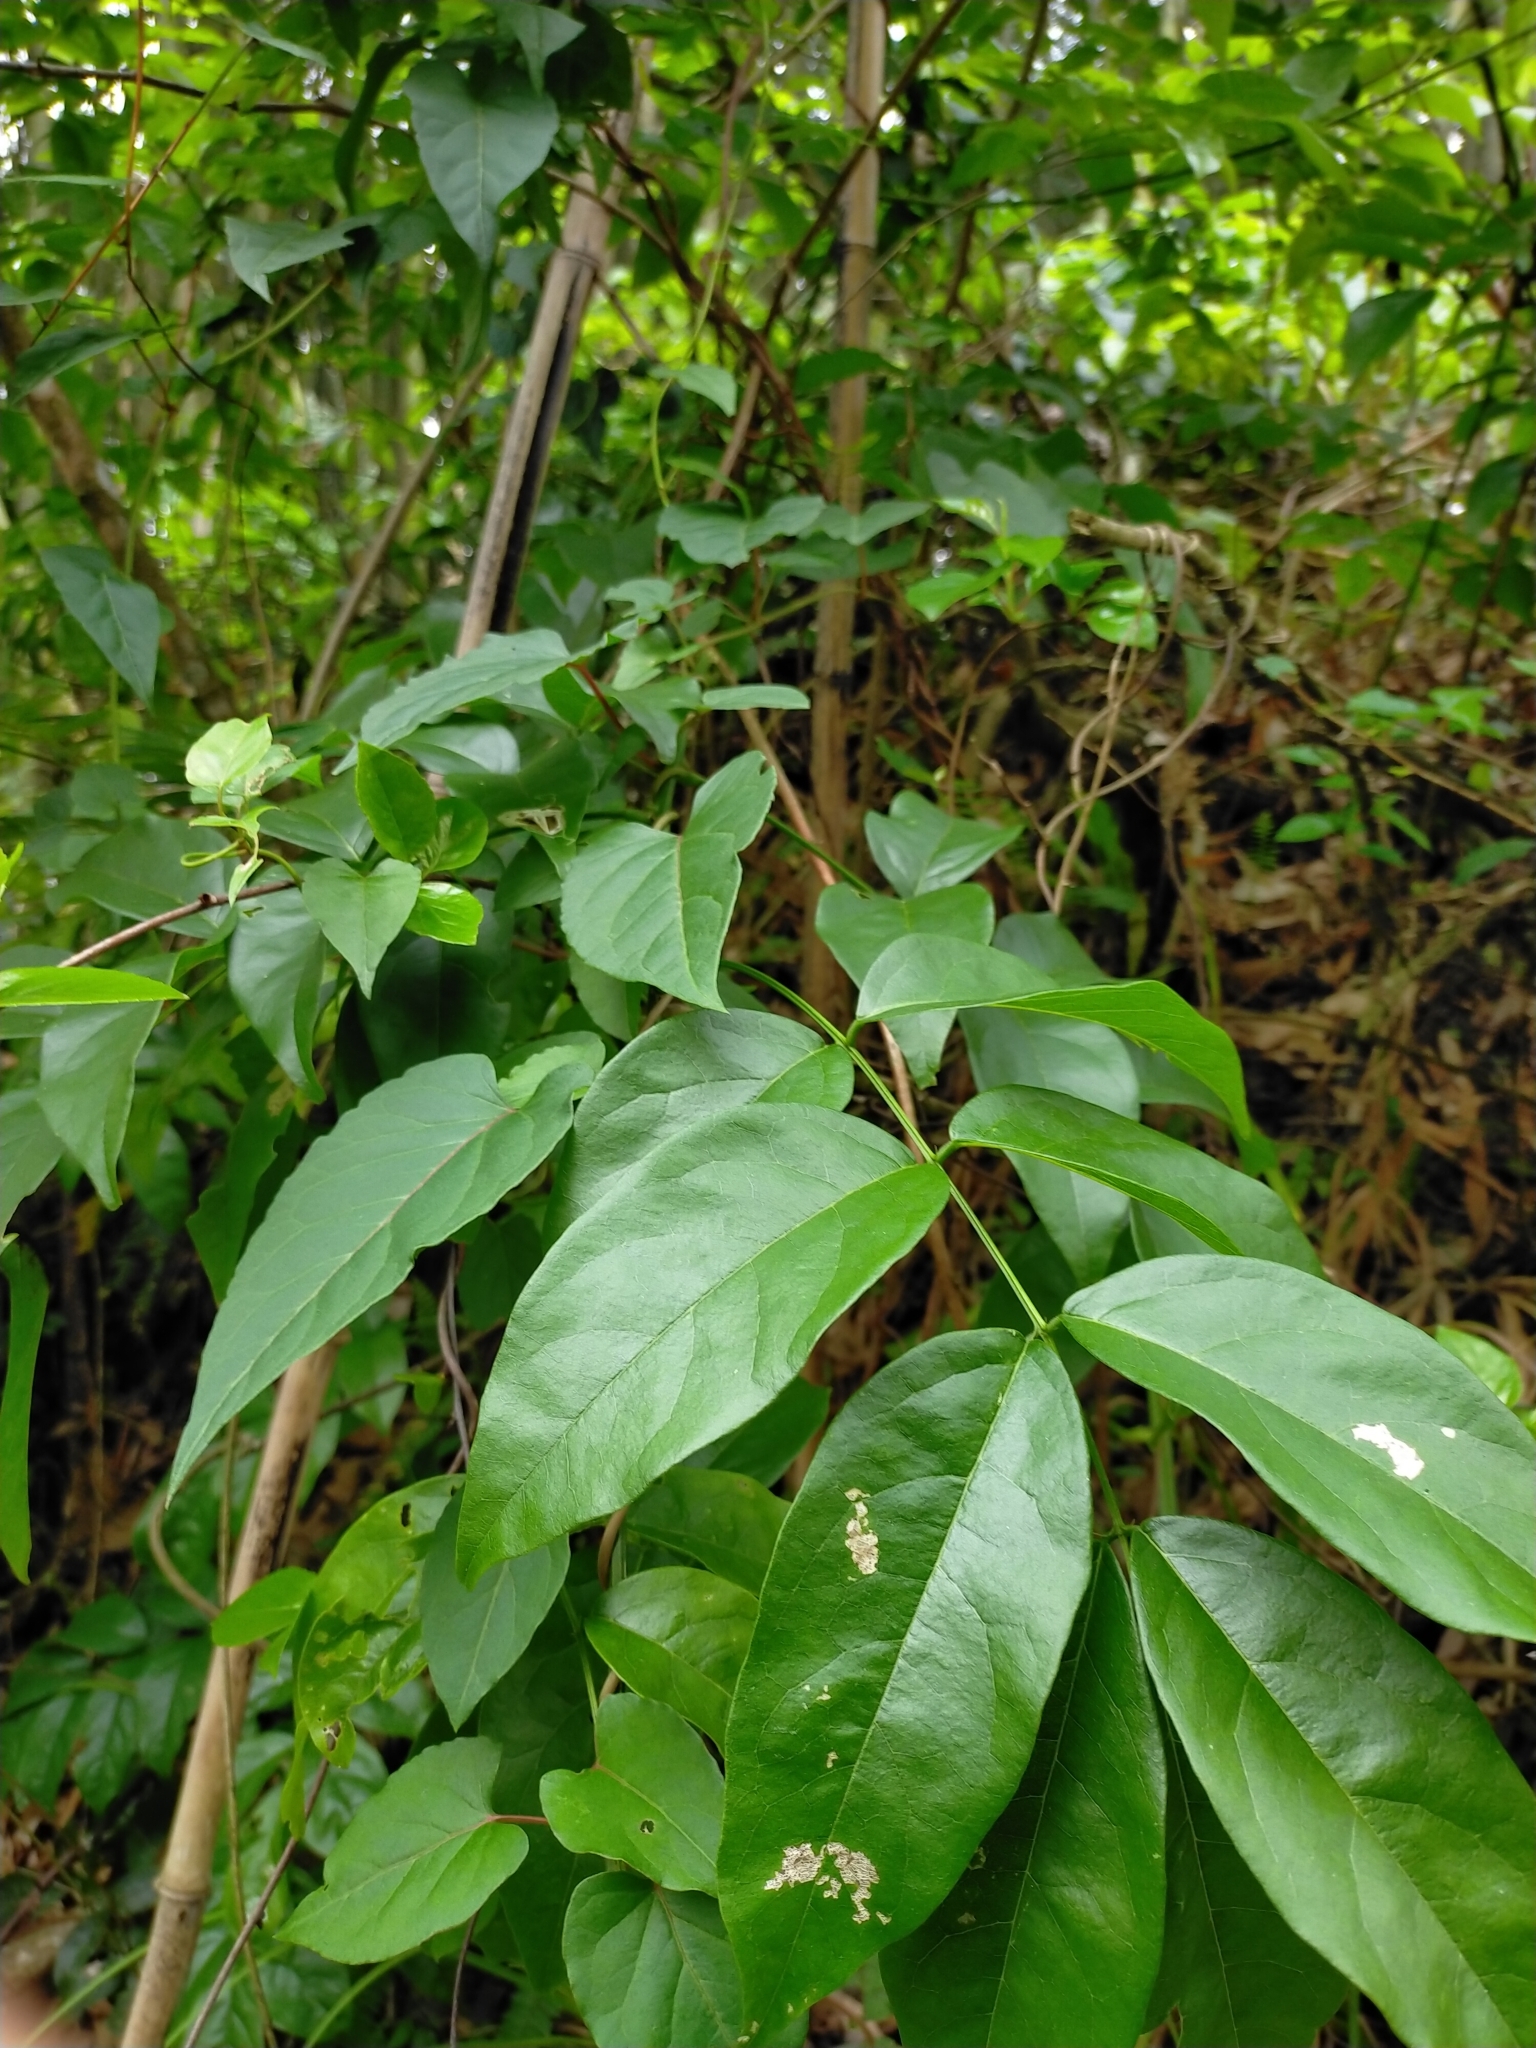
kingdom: Plantae
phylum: Tracheophyta
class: Magnoliopsida
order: Fabales
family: Fabaceae
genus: Wisteriopsis
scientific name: Wisteriopsis reticulata
